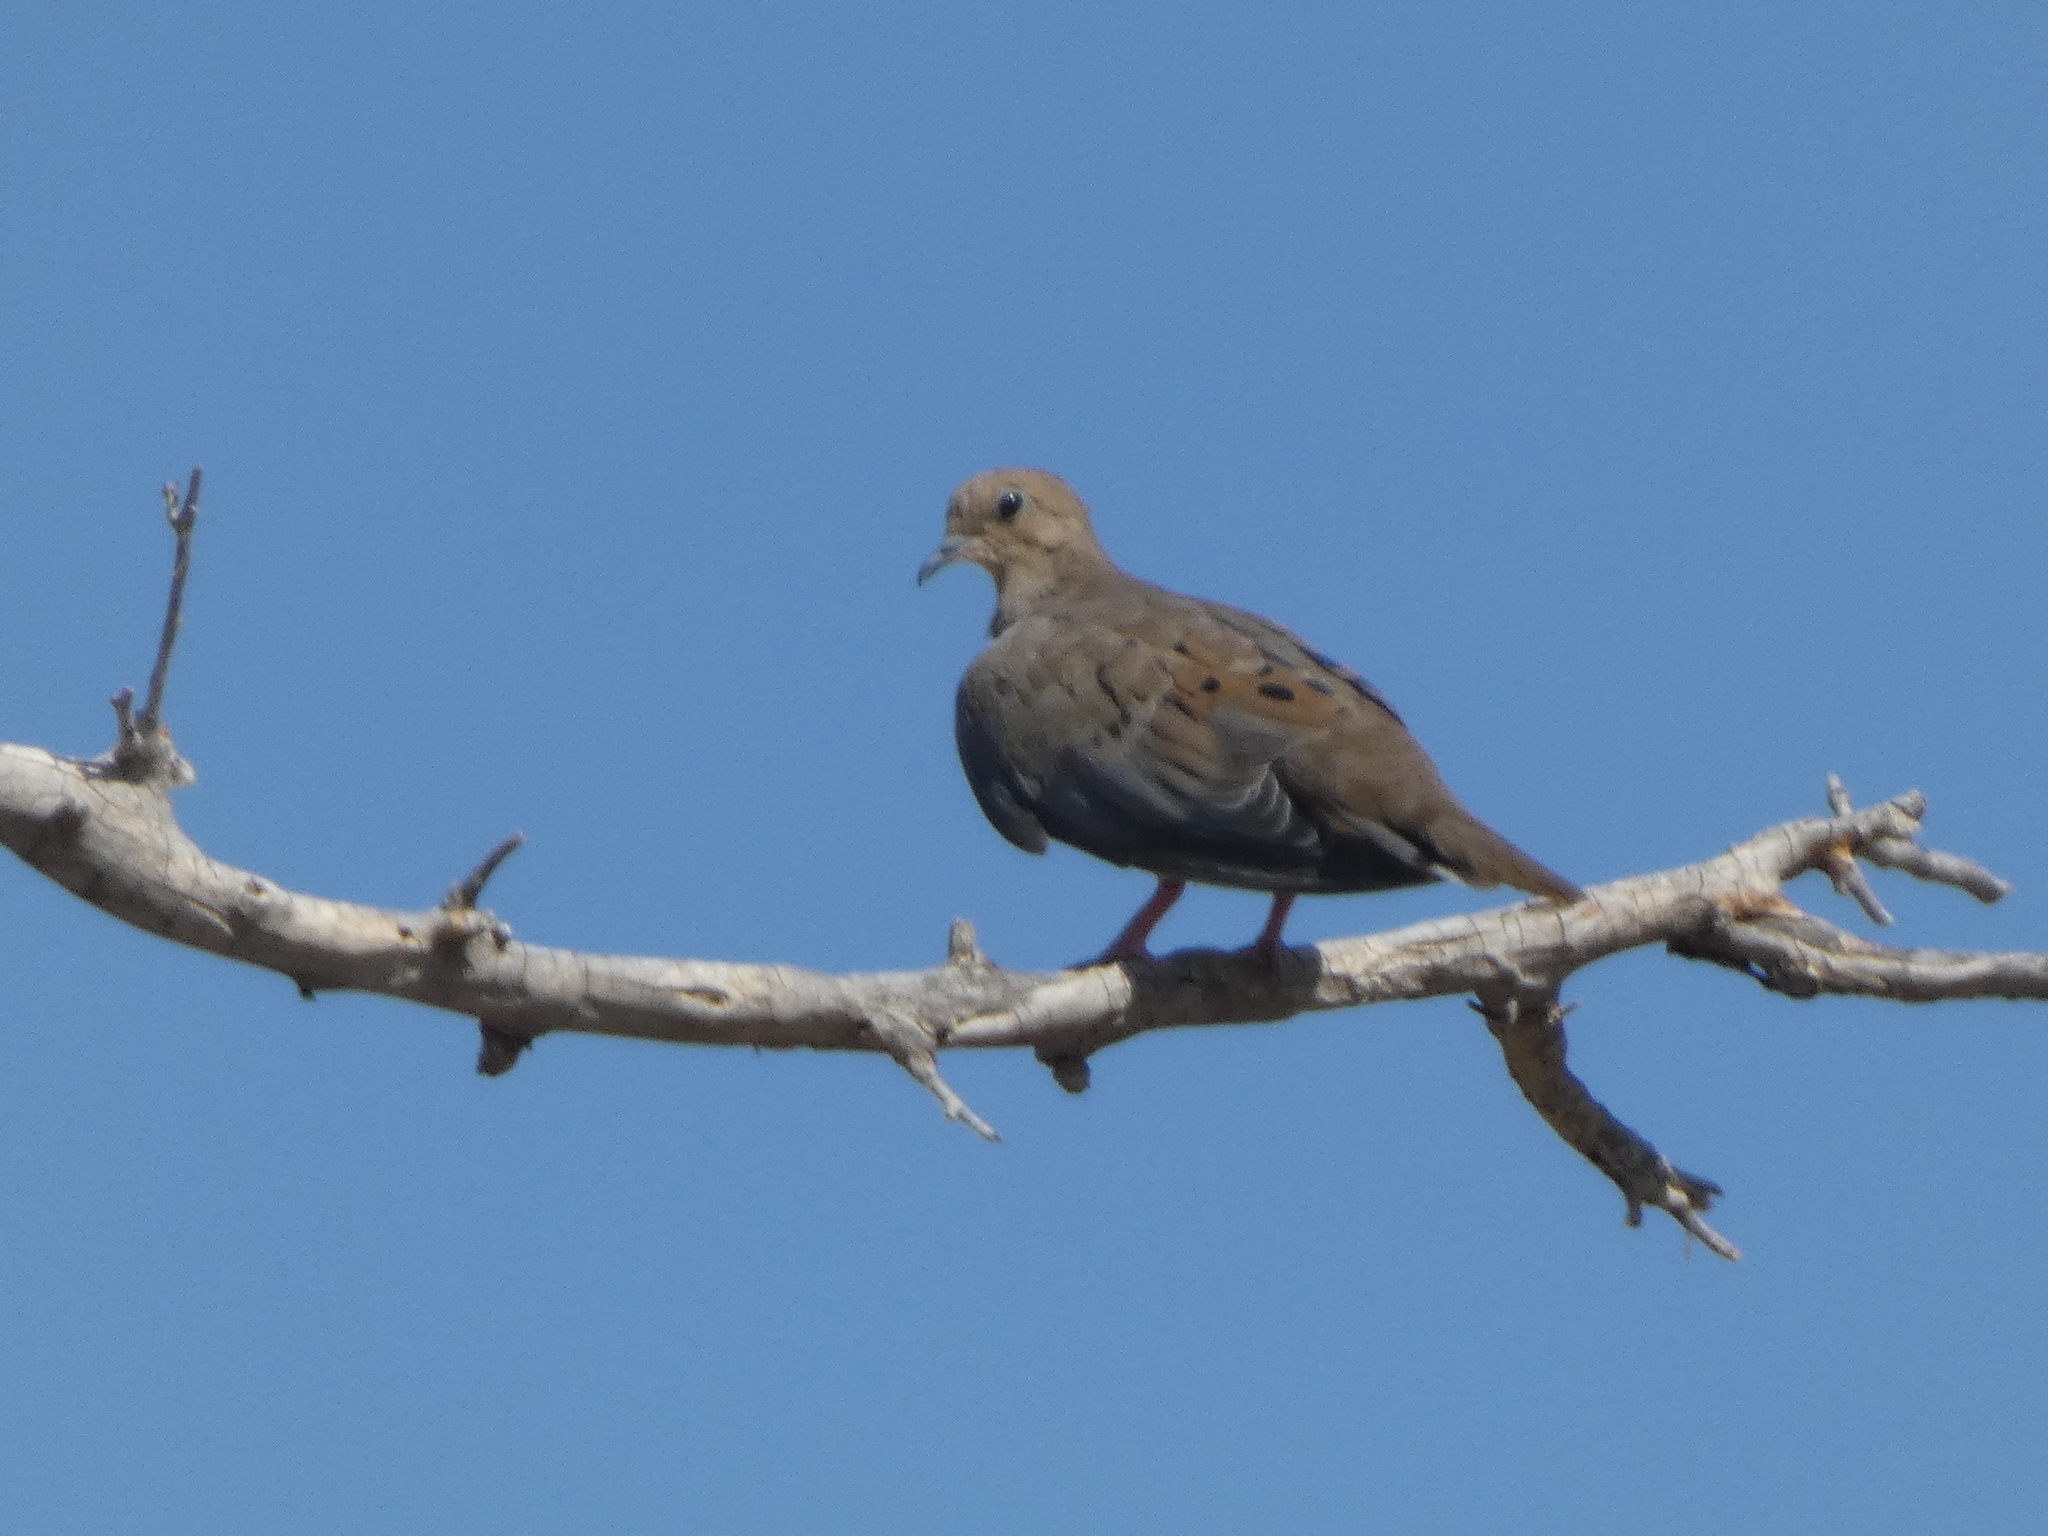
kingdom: Animalia
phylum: Chordata
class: Aves
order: Columbiformes
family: Columbidae
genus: Zenaida
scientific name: Zenaida macroura
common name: Mourning dove
